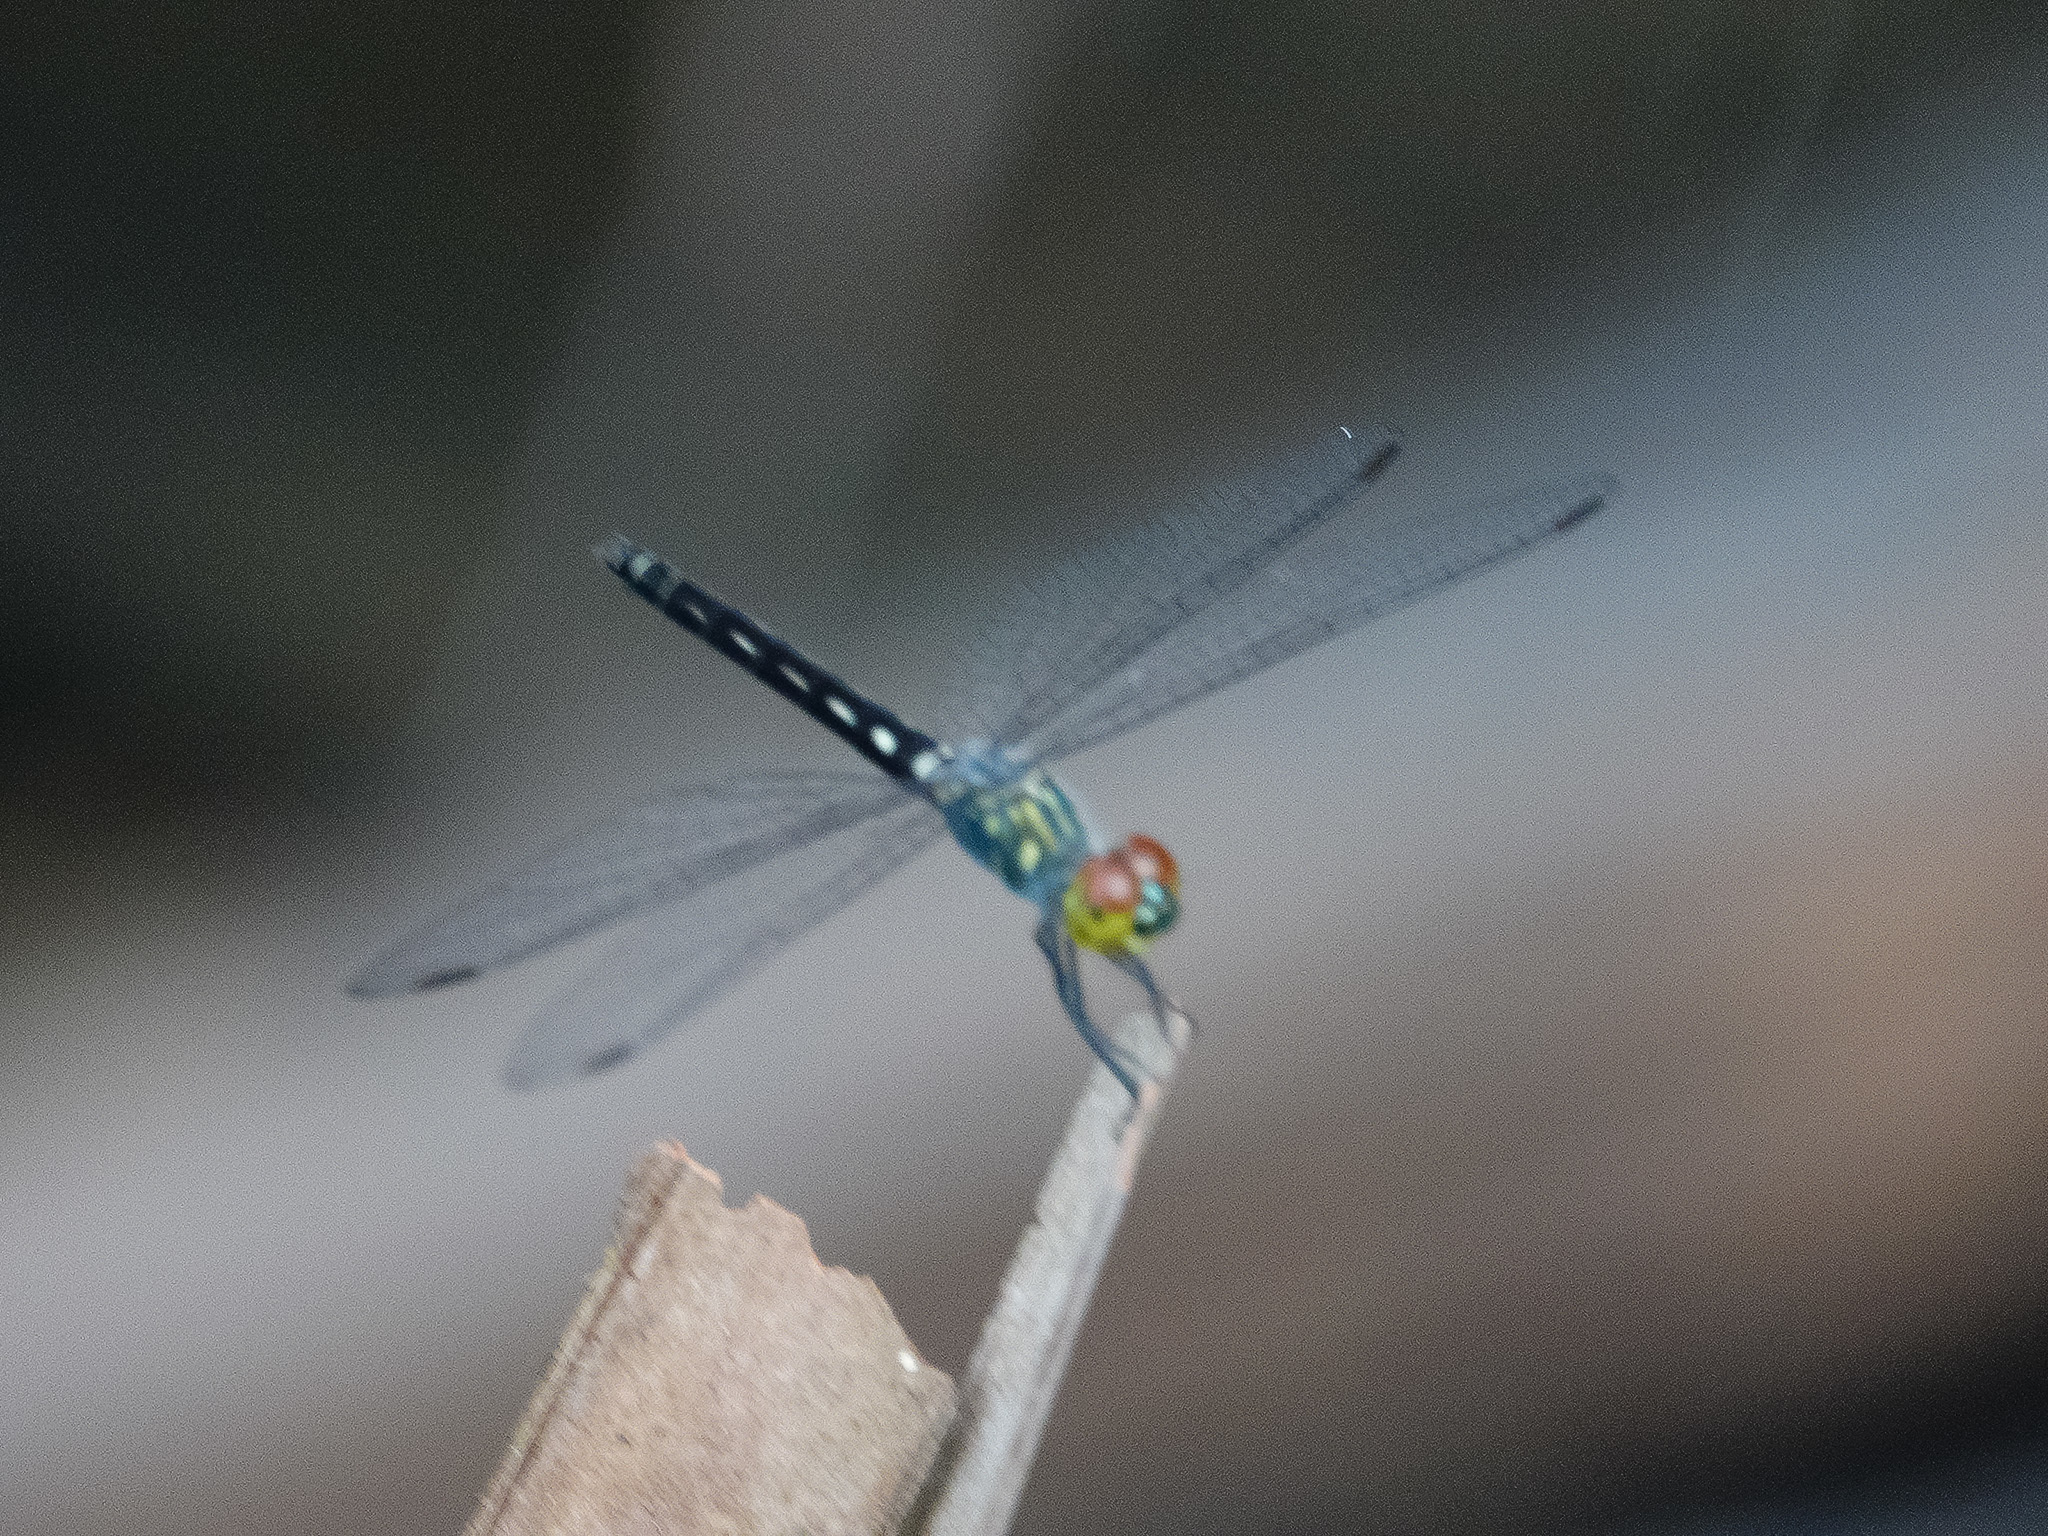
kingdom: Animalia
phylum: Arthropoda
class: Insecta
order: Odonata
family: Libellulidae
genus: Raphismia
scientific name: Raphismia bispina
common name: Mangrove dwarf
